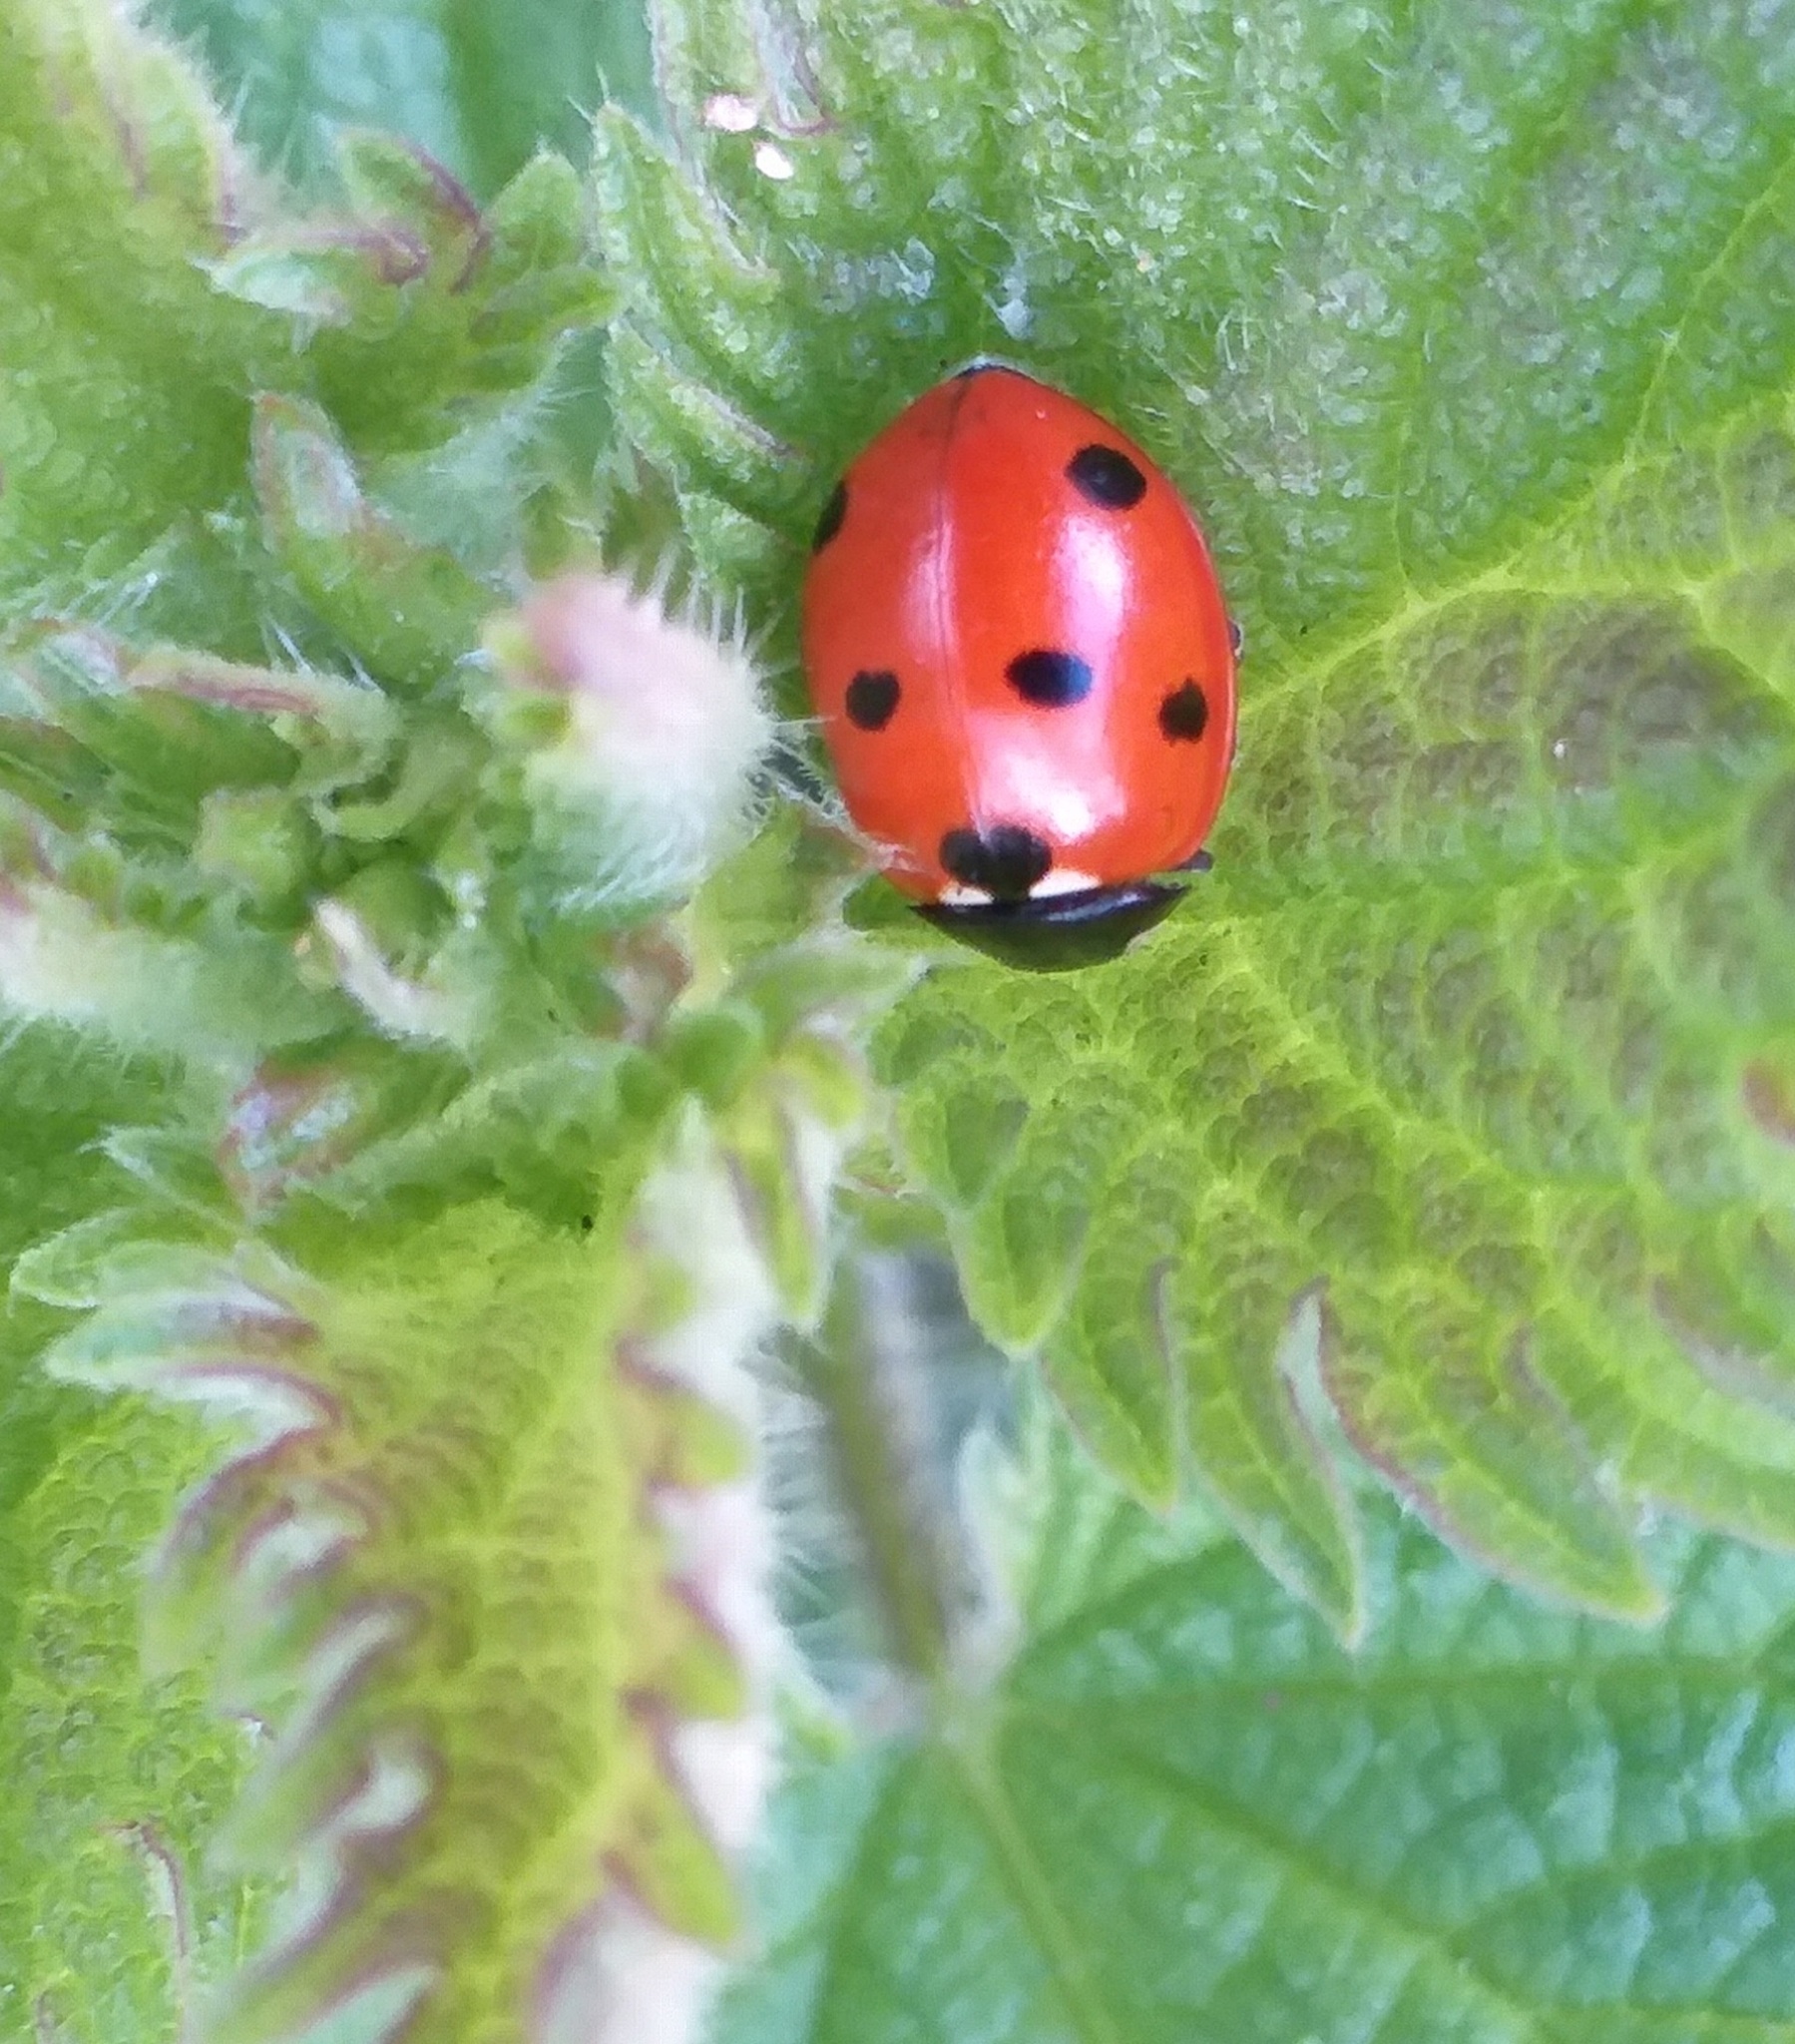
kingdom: Animalia
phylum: Arthropoda
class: Insecta
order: Coleoptera
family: Coccinellidae
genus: Coccinella
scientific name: Coccinella septempunctata
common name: Sevenspotted lady beetle
